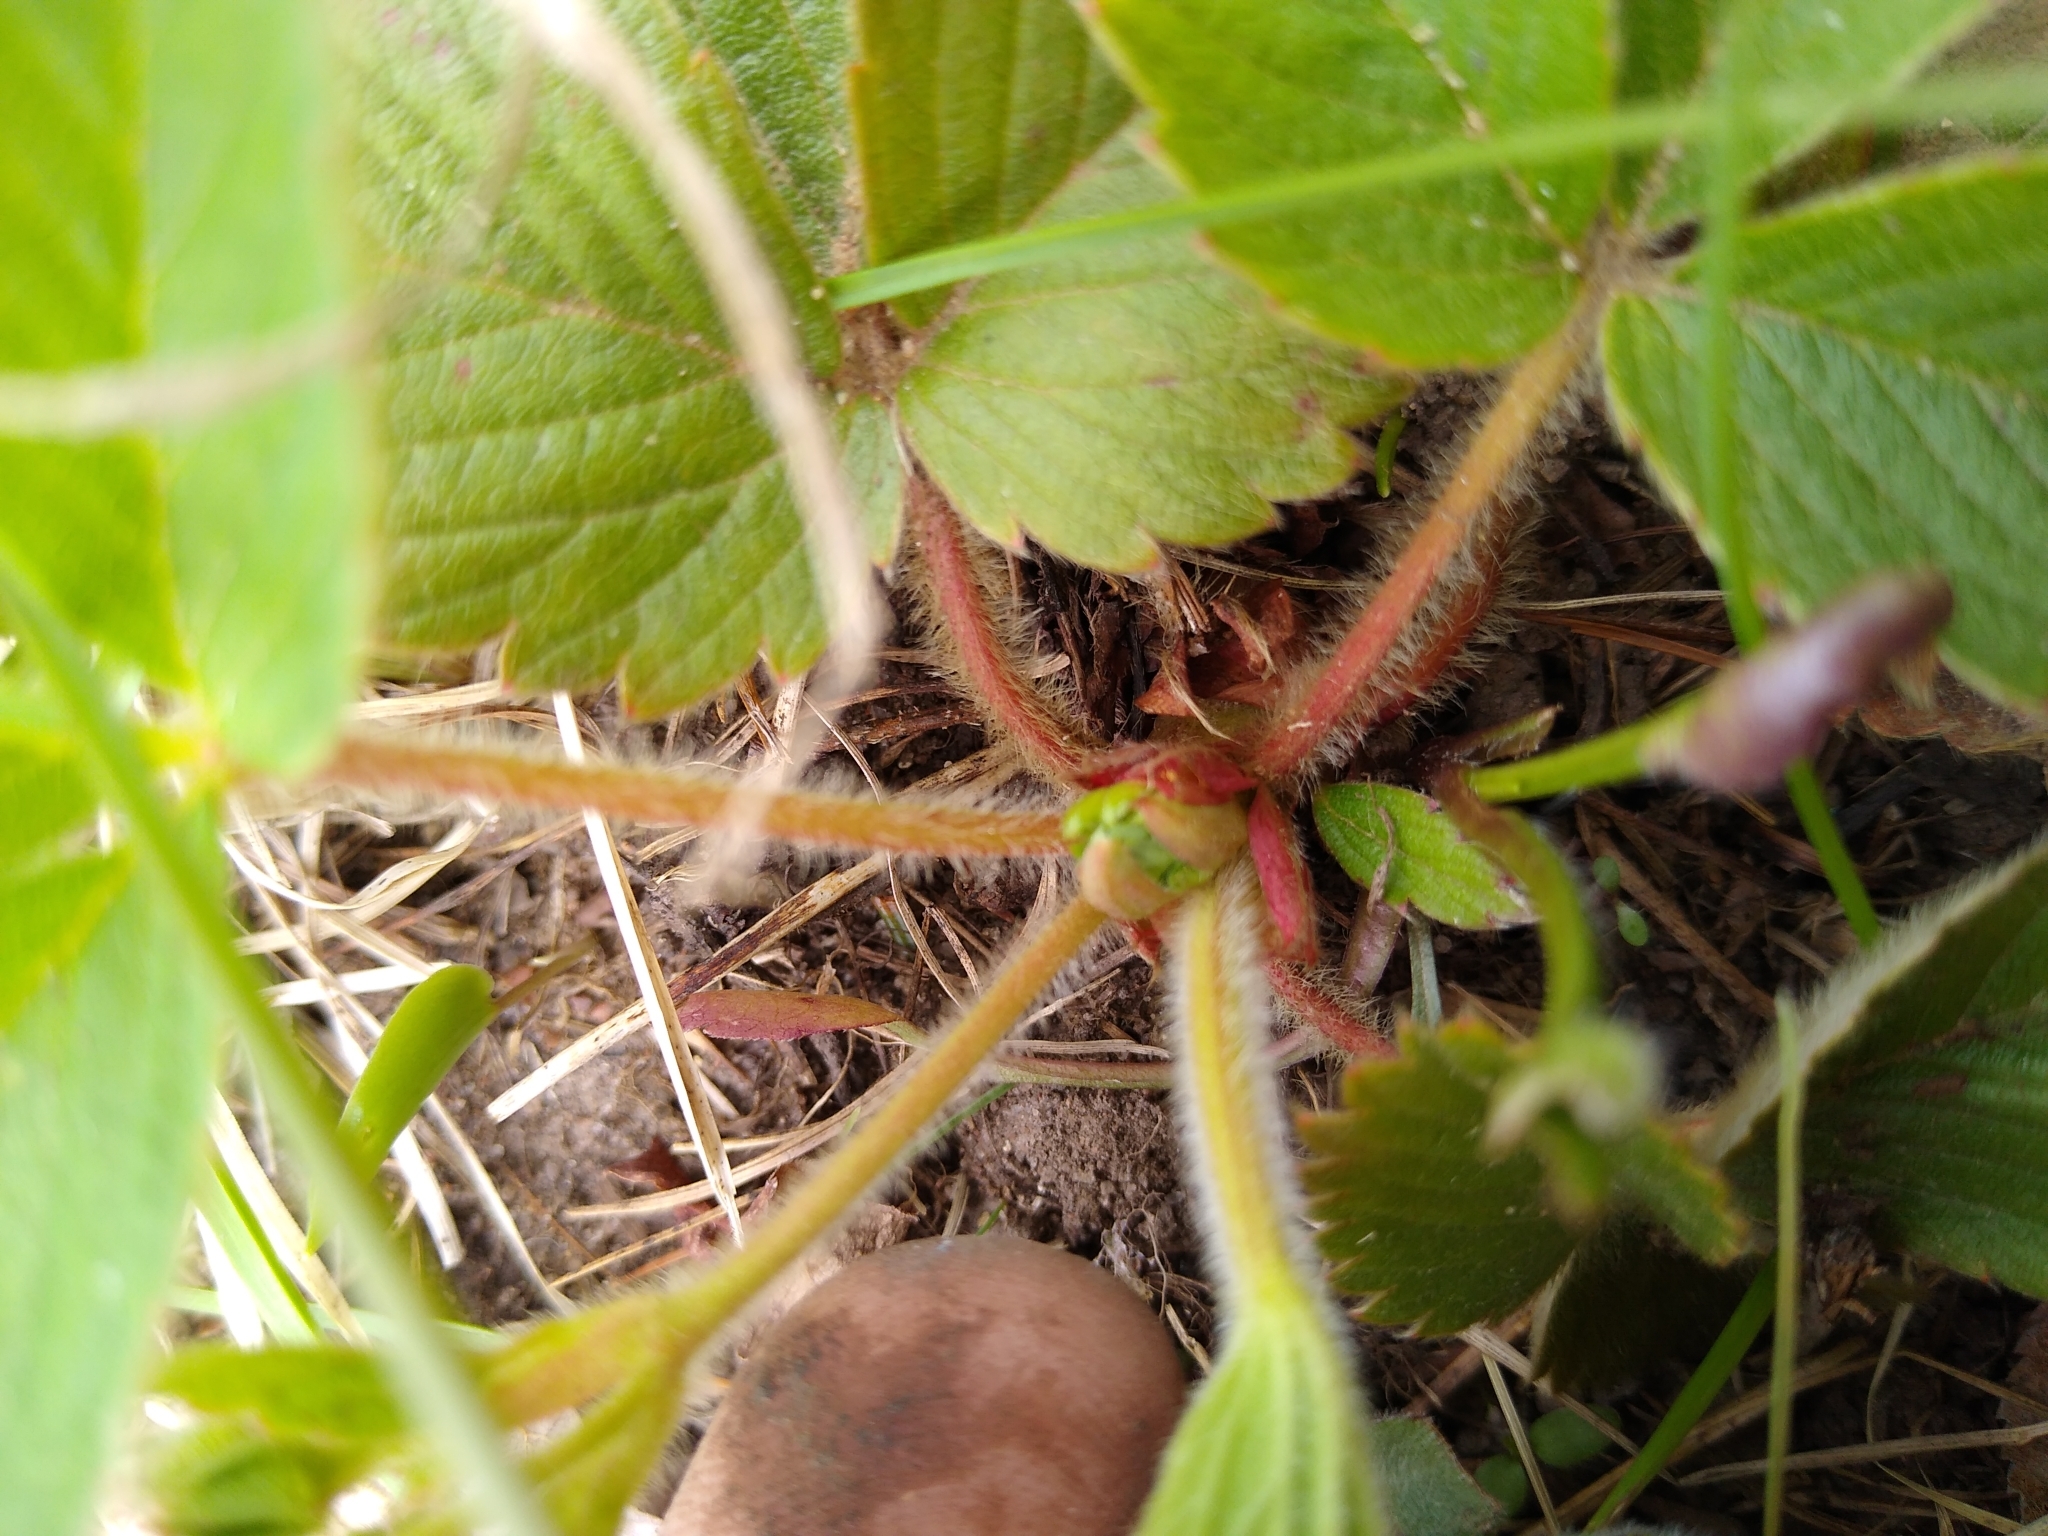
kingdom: Plantae
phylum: Tracheophyta
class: Magnoliopsida
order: Rosales
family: Rosaceae
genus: Fragaria
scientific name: Fragaria virginiana
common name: Thickleaved wild strawberry
